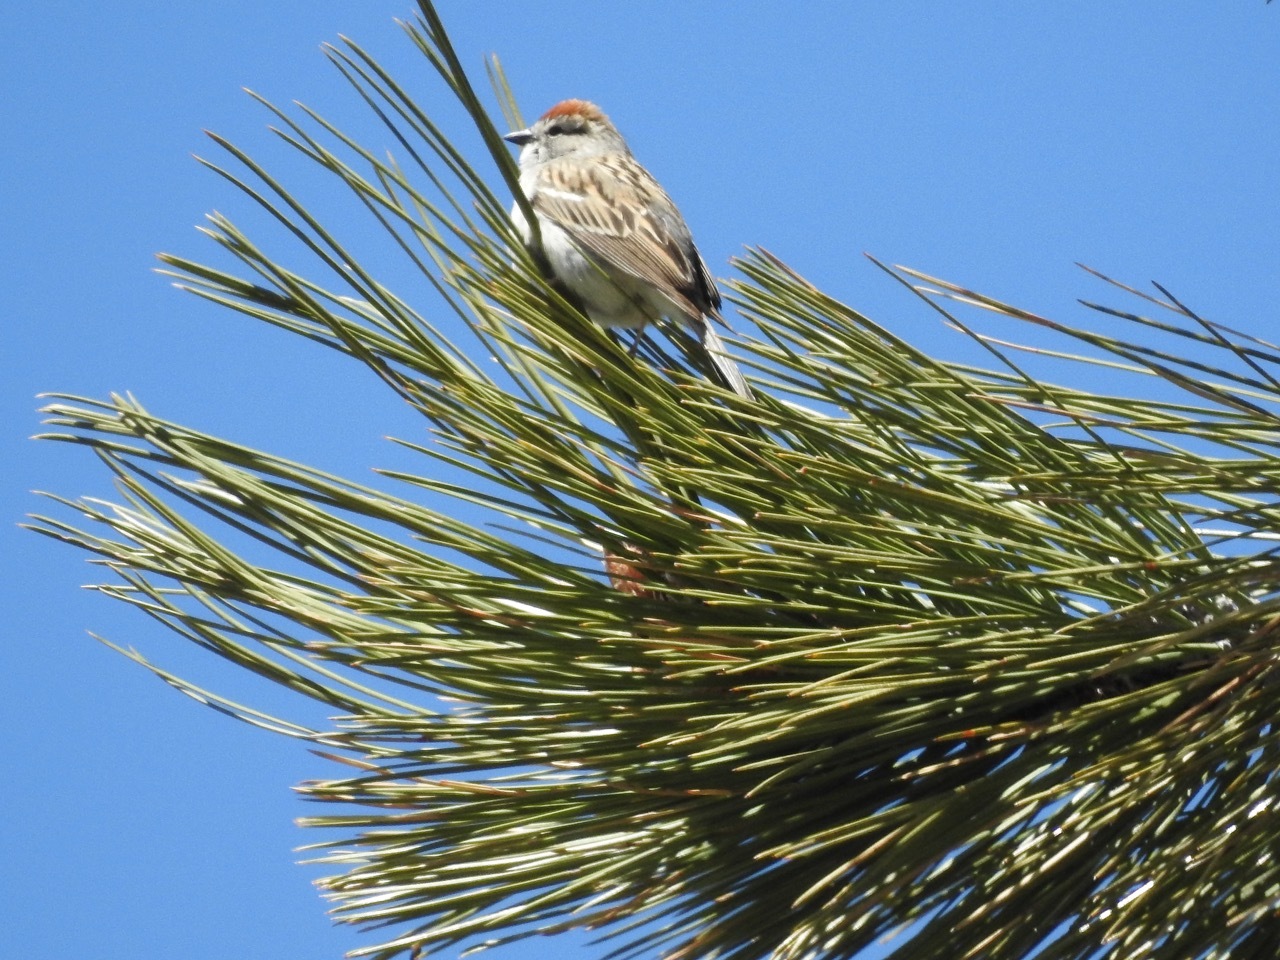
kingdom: Animalia
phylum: Chordata
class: Aves
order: Passeriformes
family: Passerellidae
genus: Spizella
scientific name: Spizella passerina
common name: Chipping sparrow
